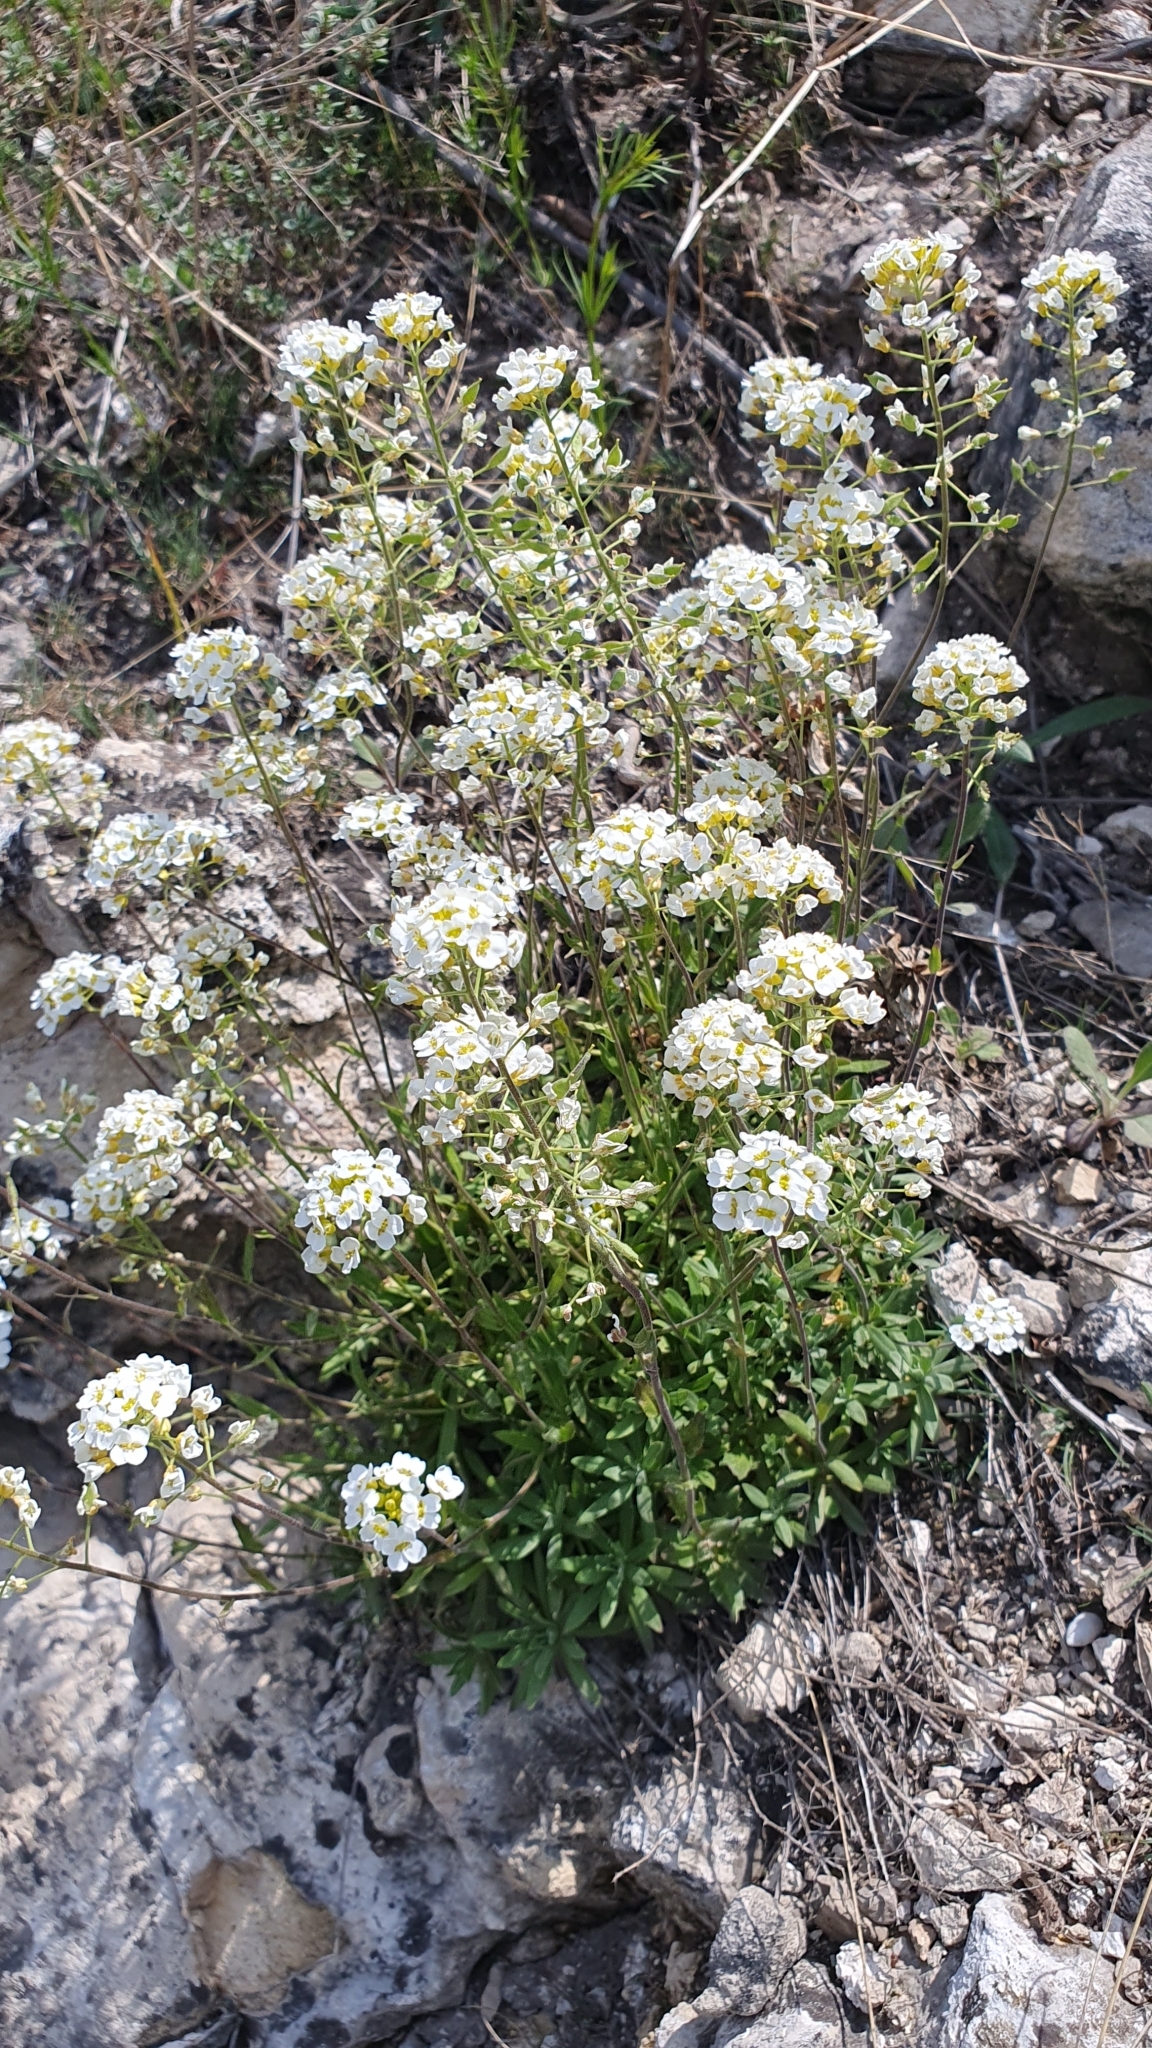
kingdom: Plantae
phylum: Tracheophyta
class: Magnoliopsida
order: Brassicales
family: Brassicaceae
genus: Draba
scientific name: Draba hyperborea
